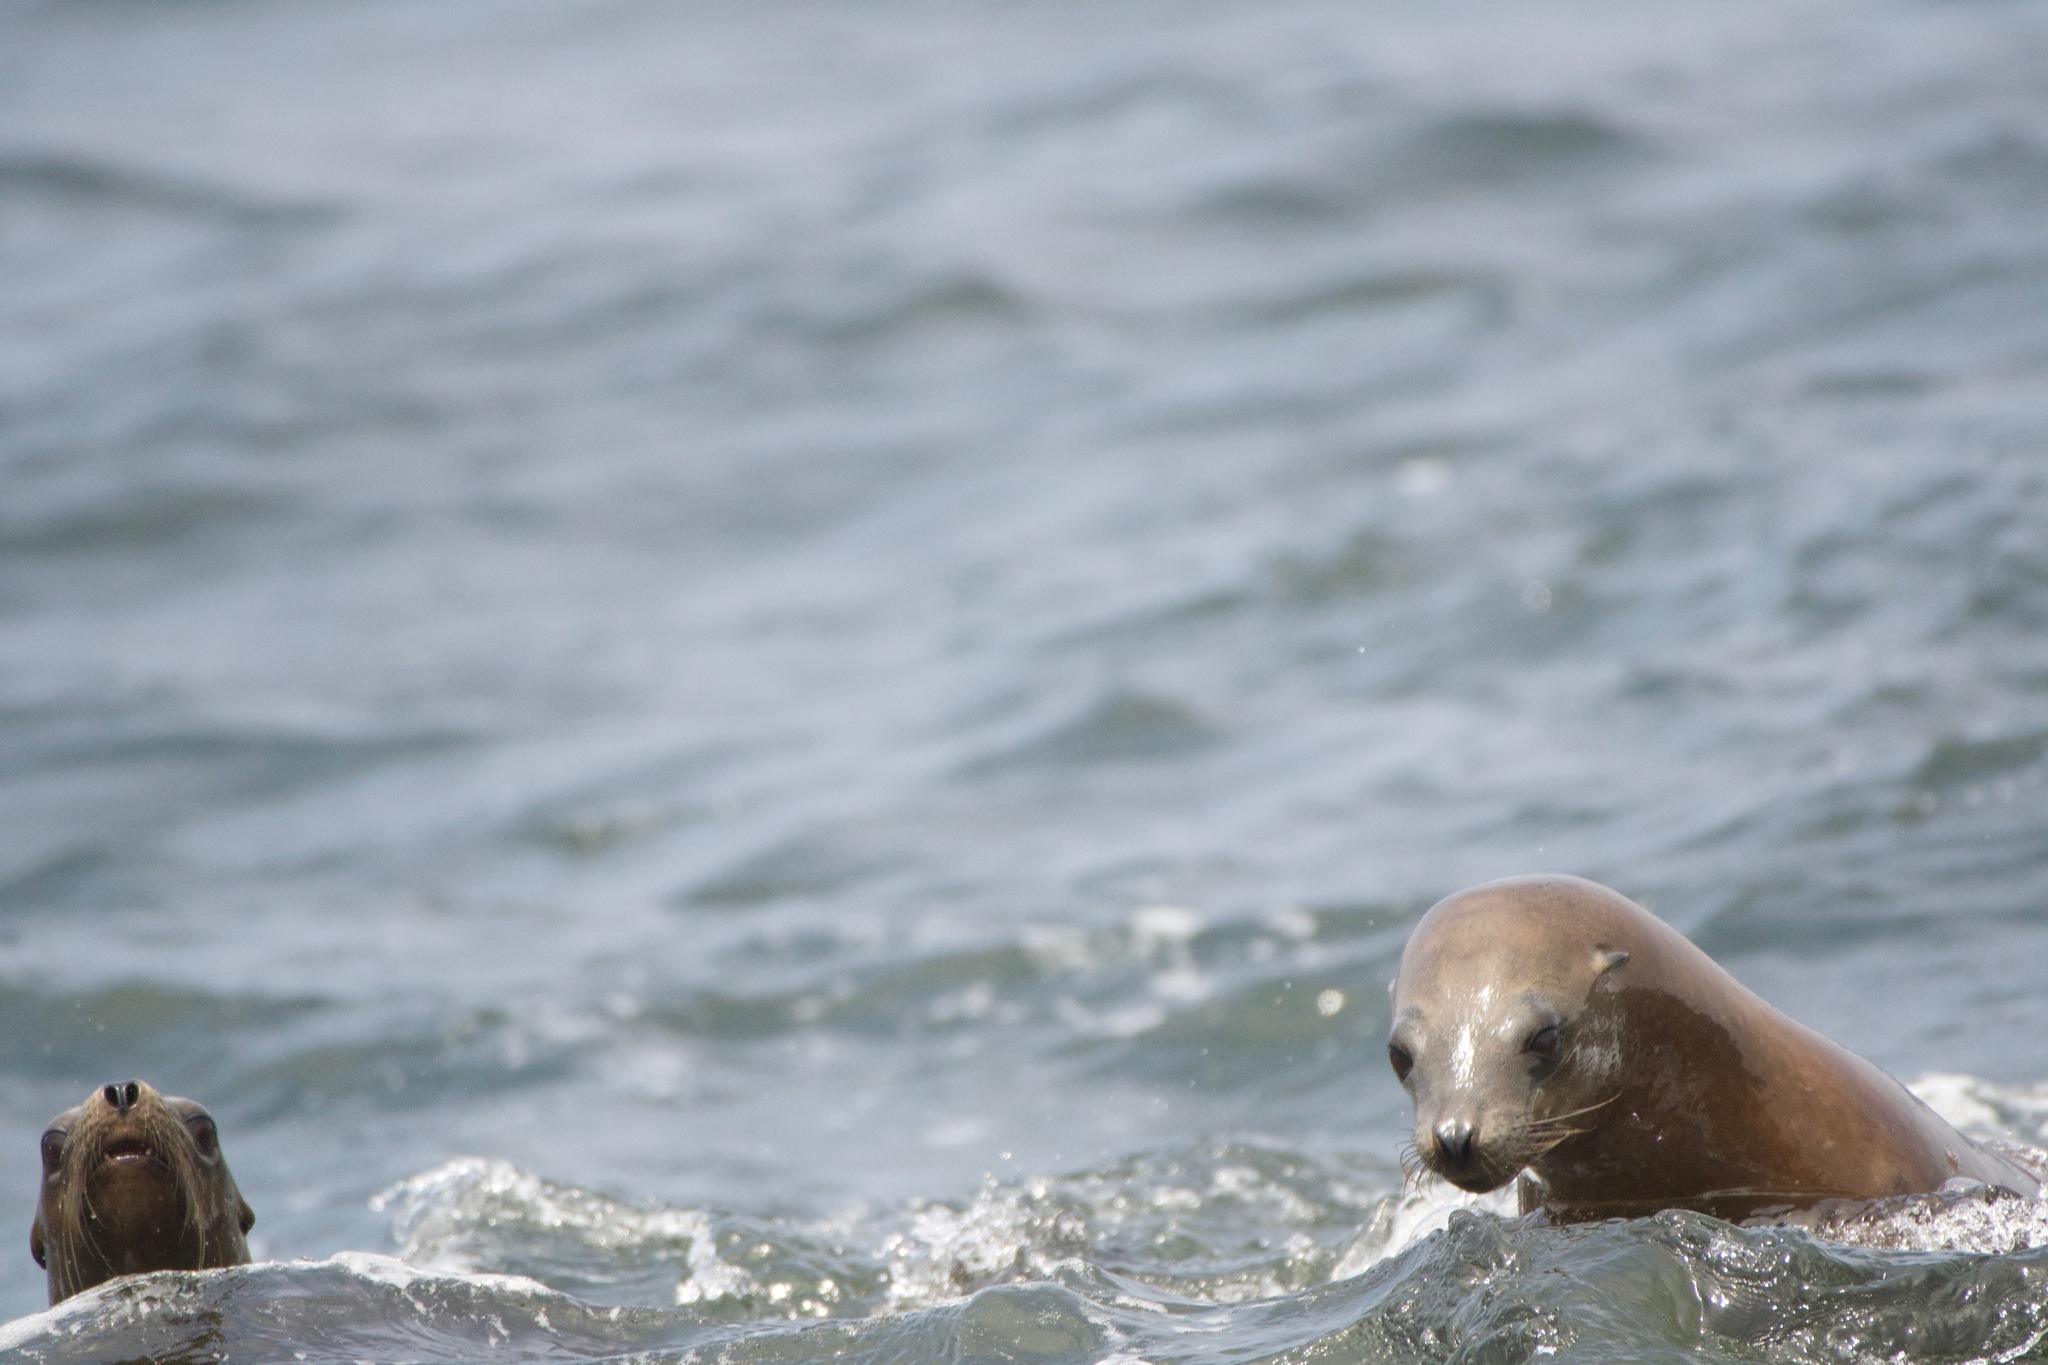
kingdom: Animalia
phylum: Chordata
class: Mammalia
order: Carnivora
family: Otariidae
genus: Zalophus
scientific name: Zalophus californianus
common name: California sea lion
